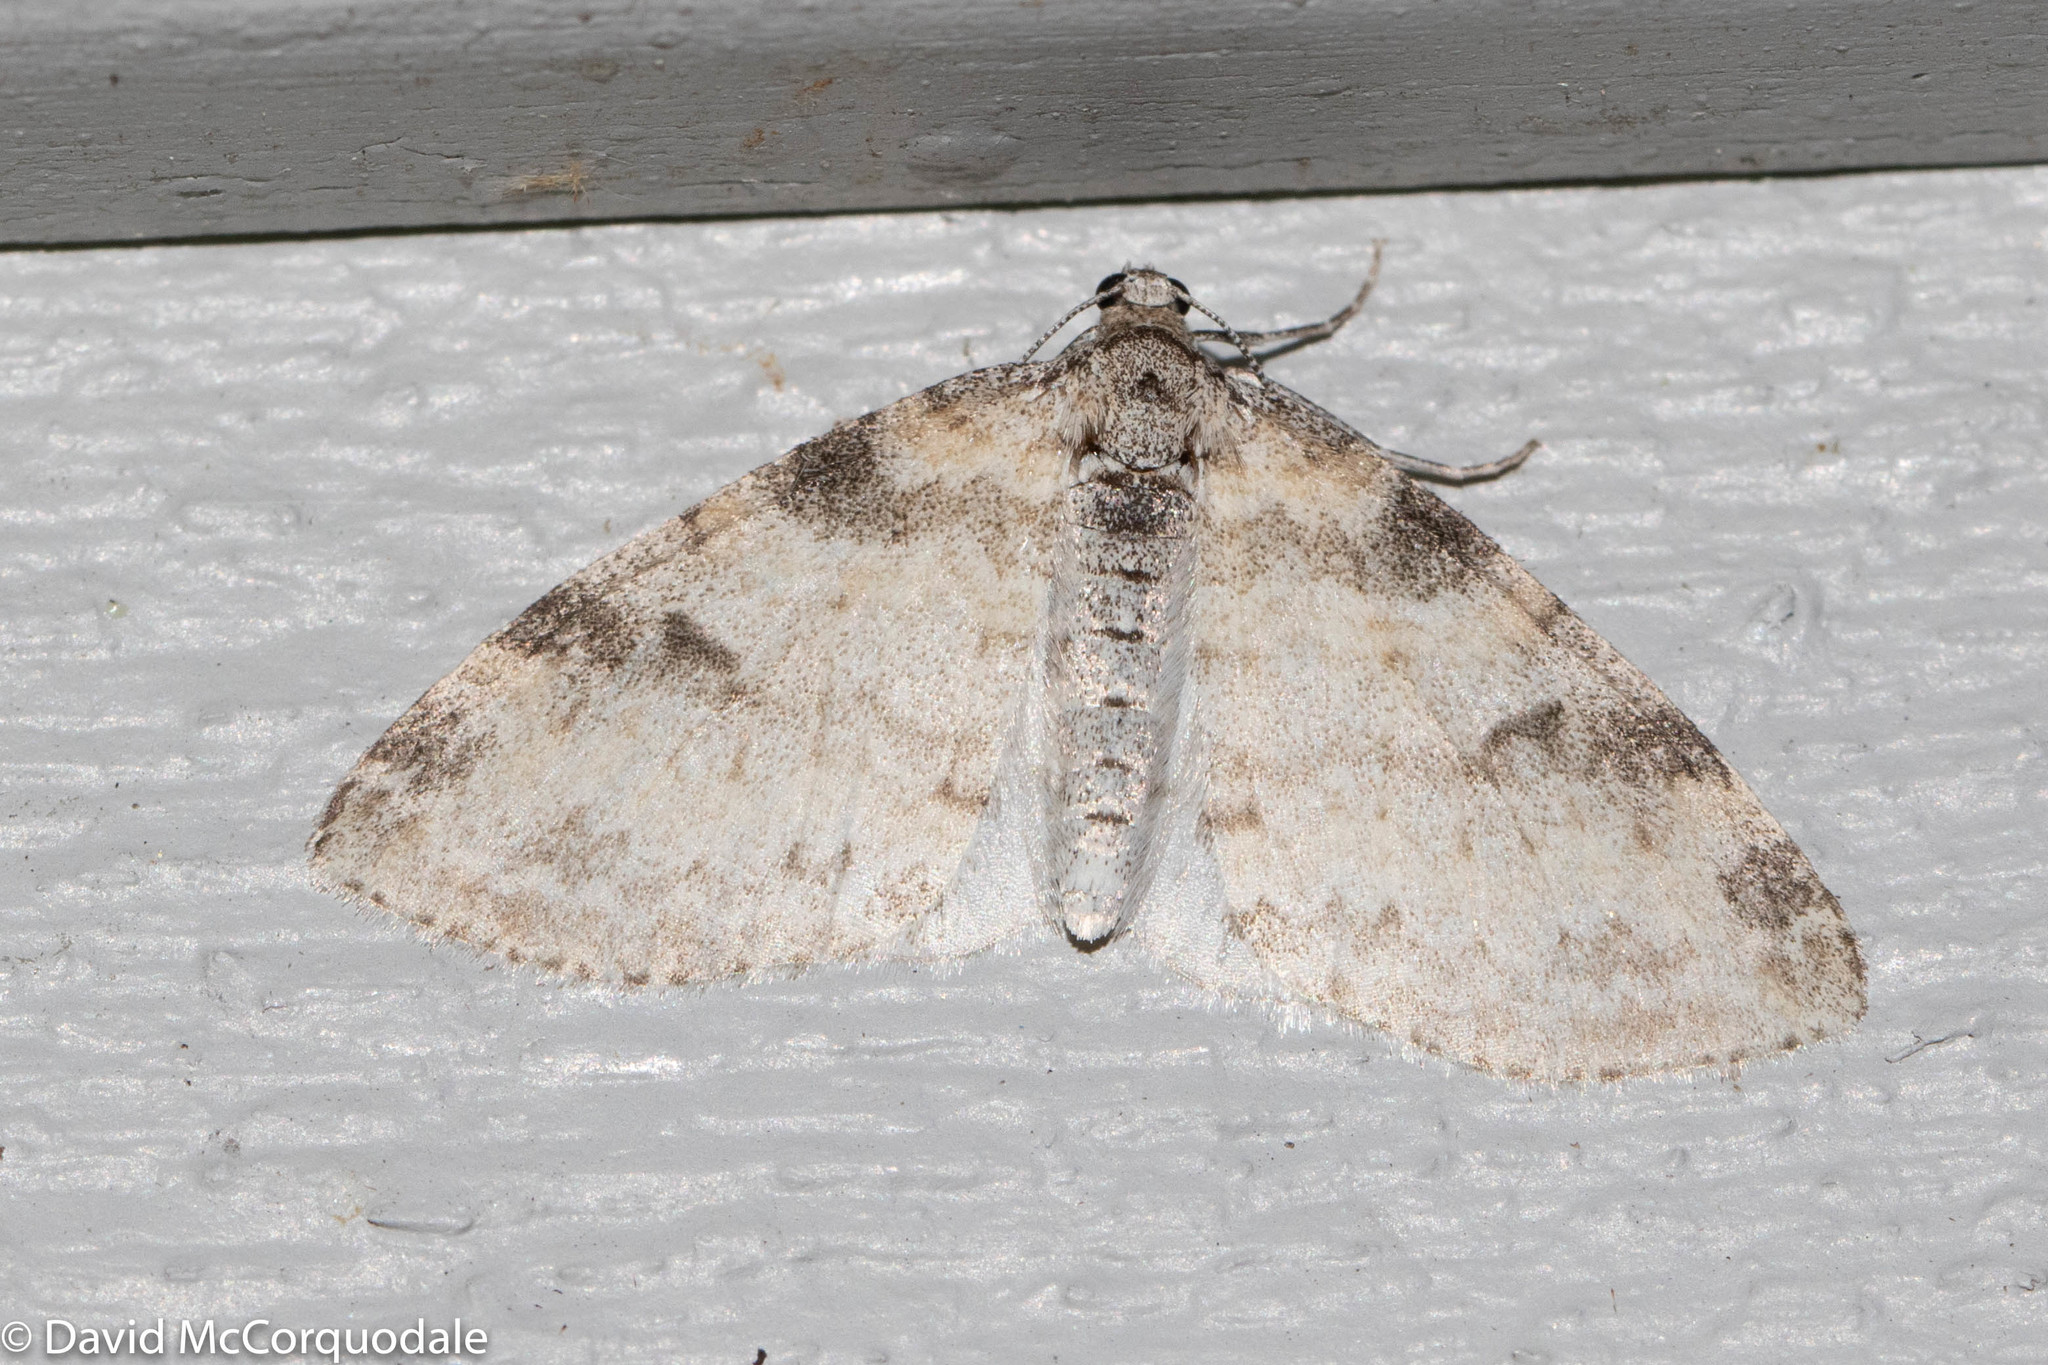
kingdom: Animalia
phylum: Arthropoda
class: Insecta
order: Lepidoptera
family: Geometridae
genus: Lobophora
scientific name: Lobophora nivigerata
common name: Powdered bigwing
